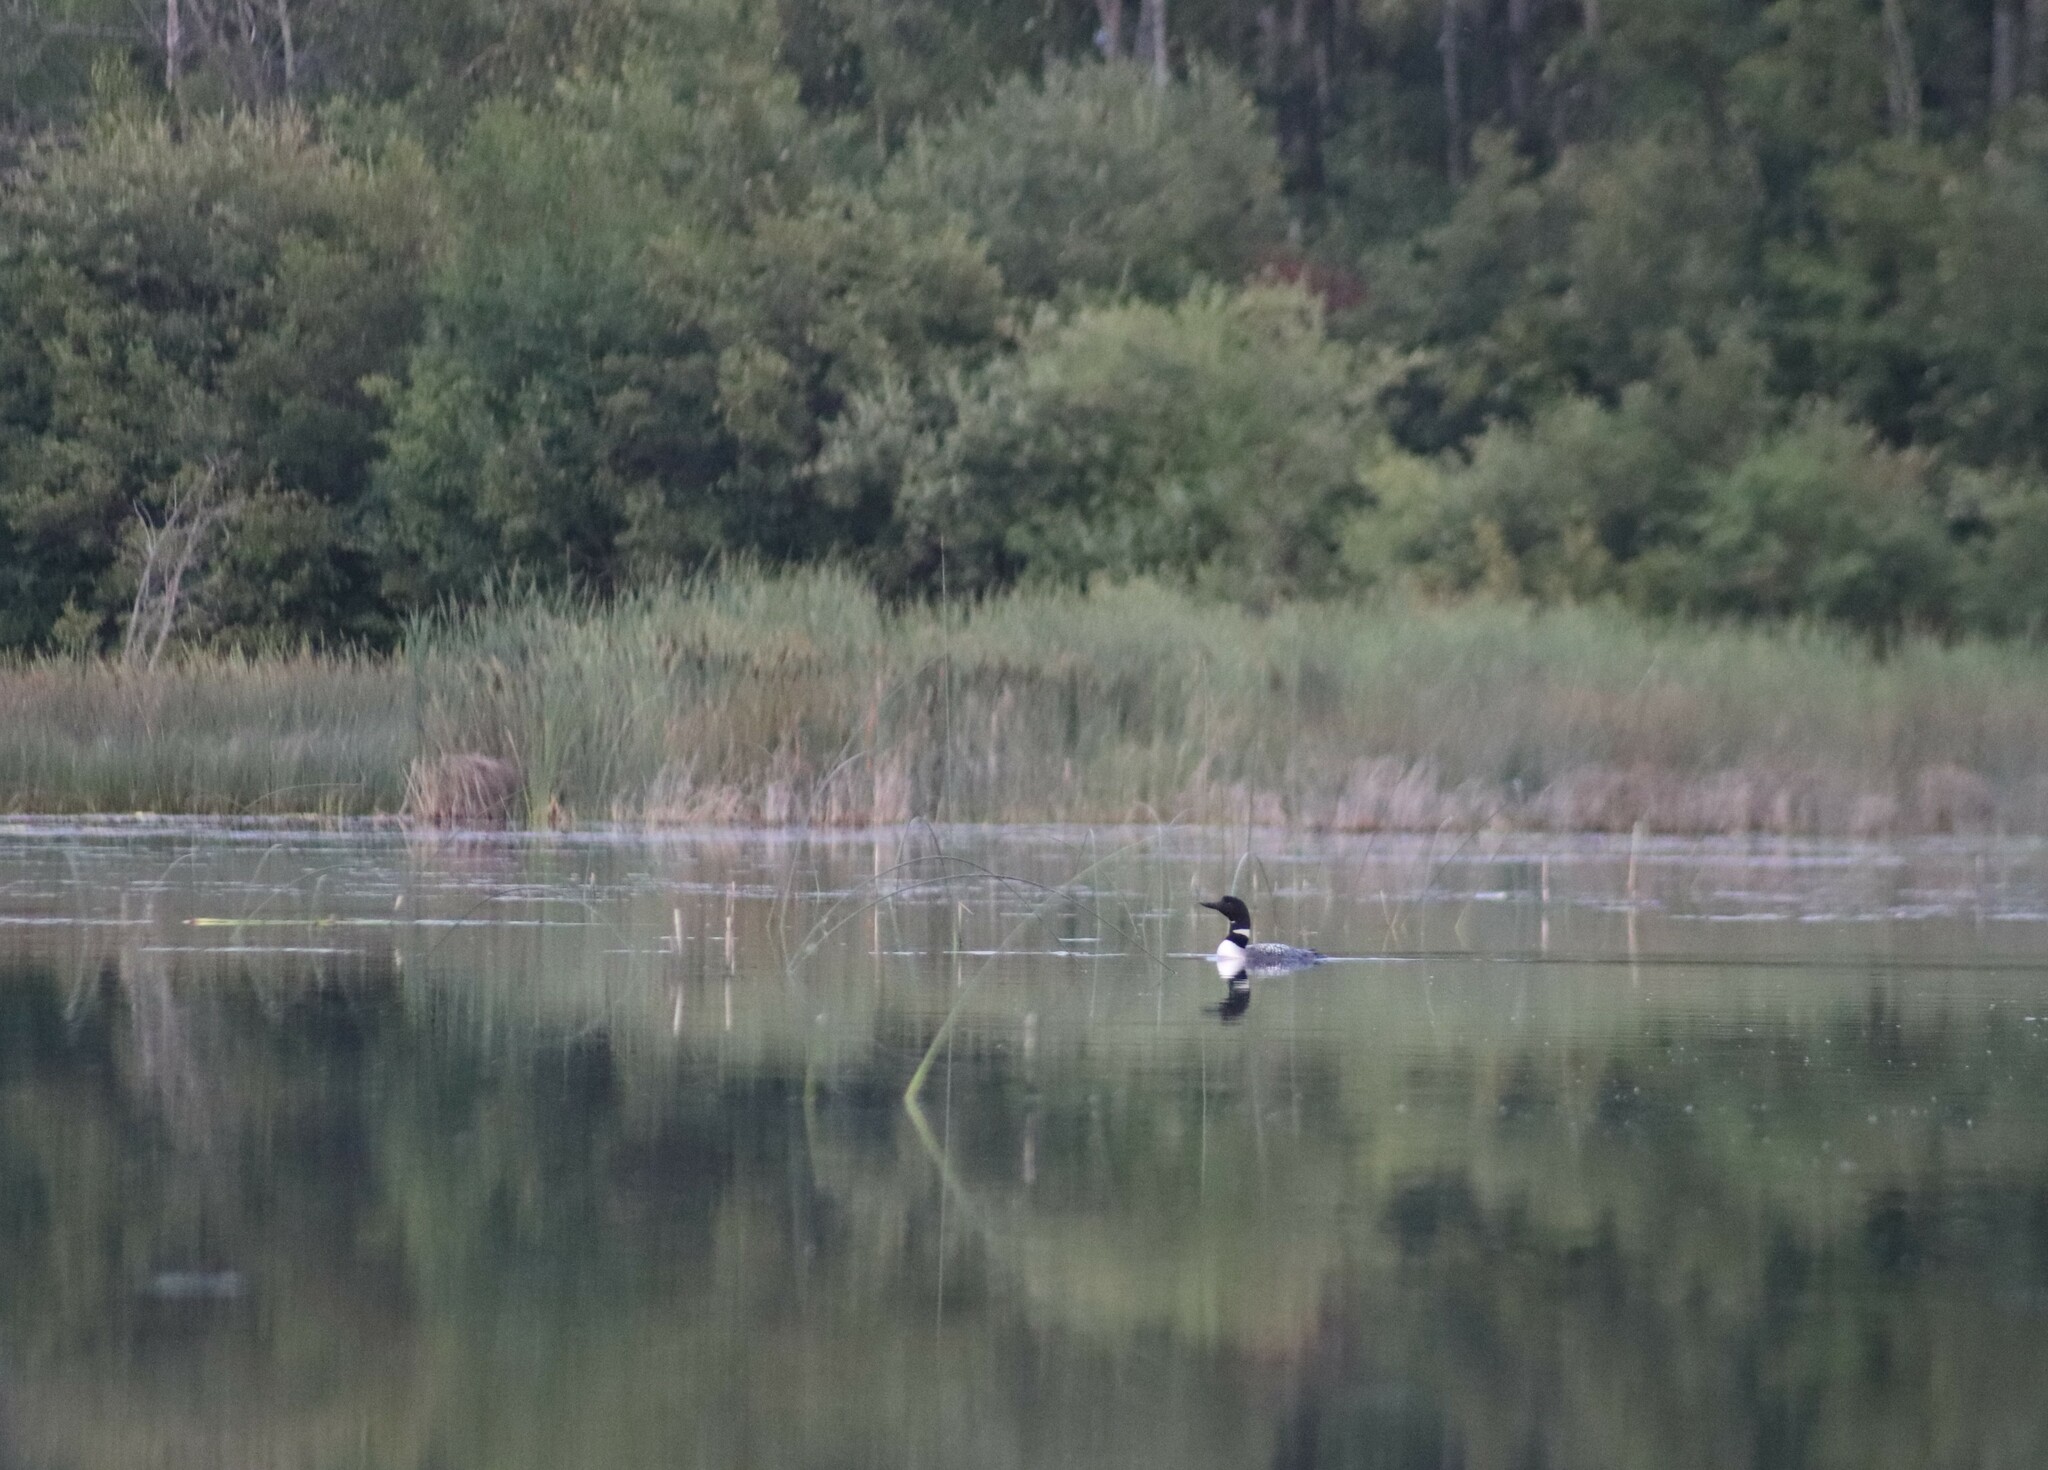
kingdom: Animalia
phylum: Chordata
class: Aves
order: Gaviiformes
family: Gaviidae
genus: Gavia
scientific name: Gavia immer
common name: Common loon
